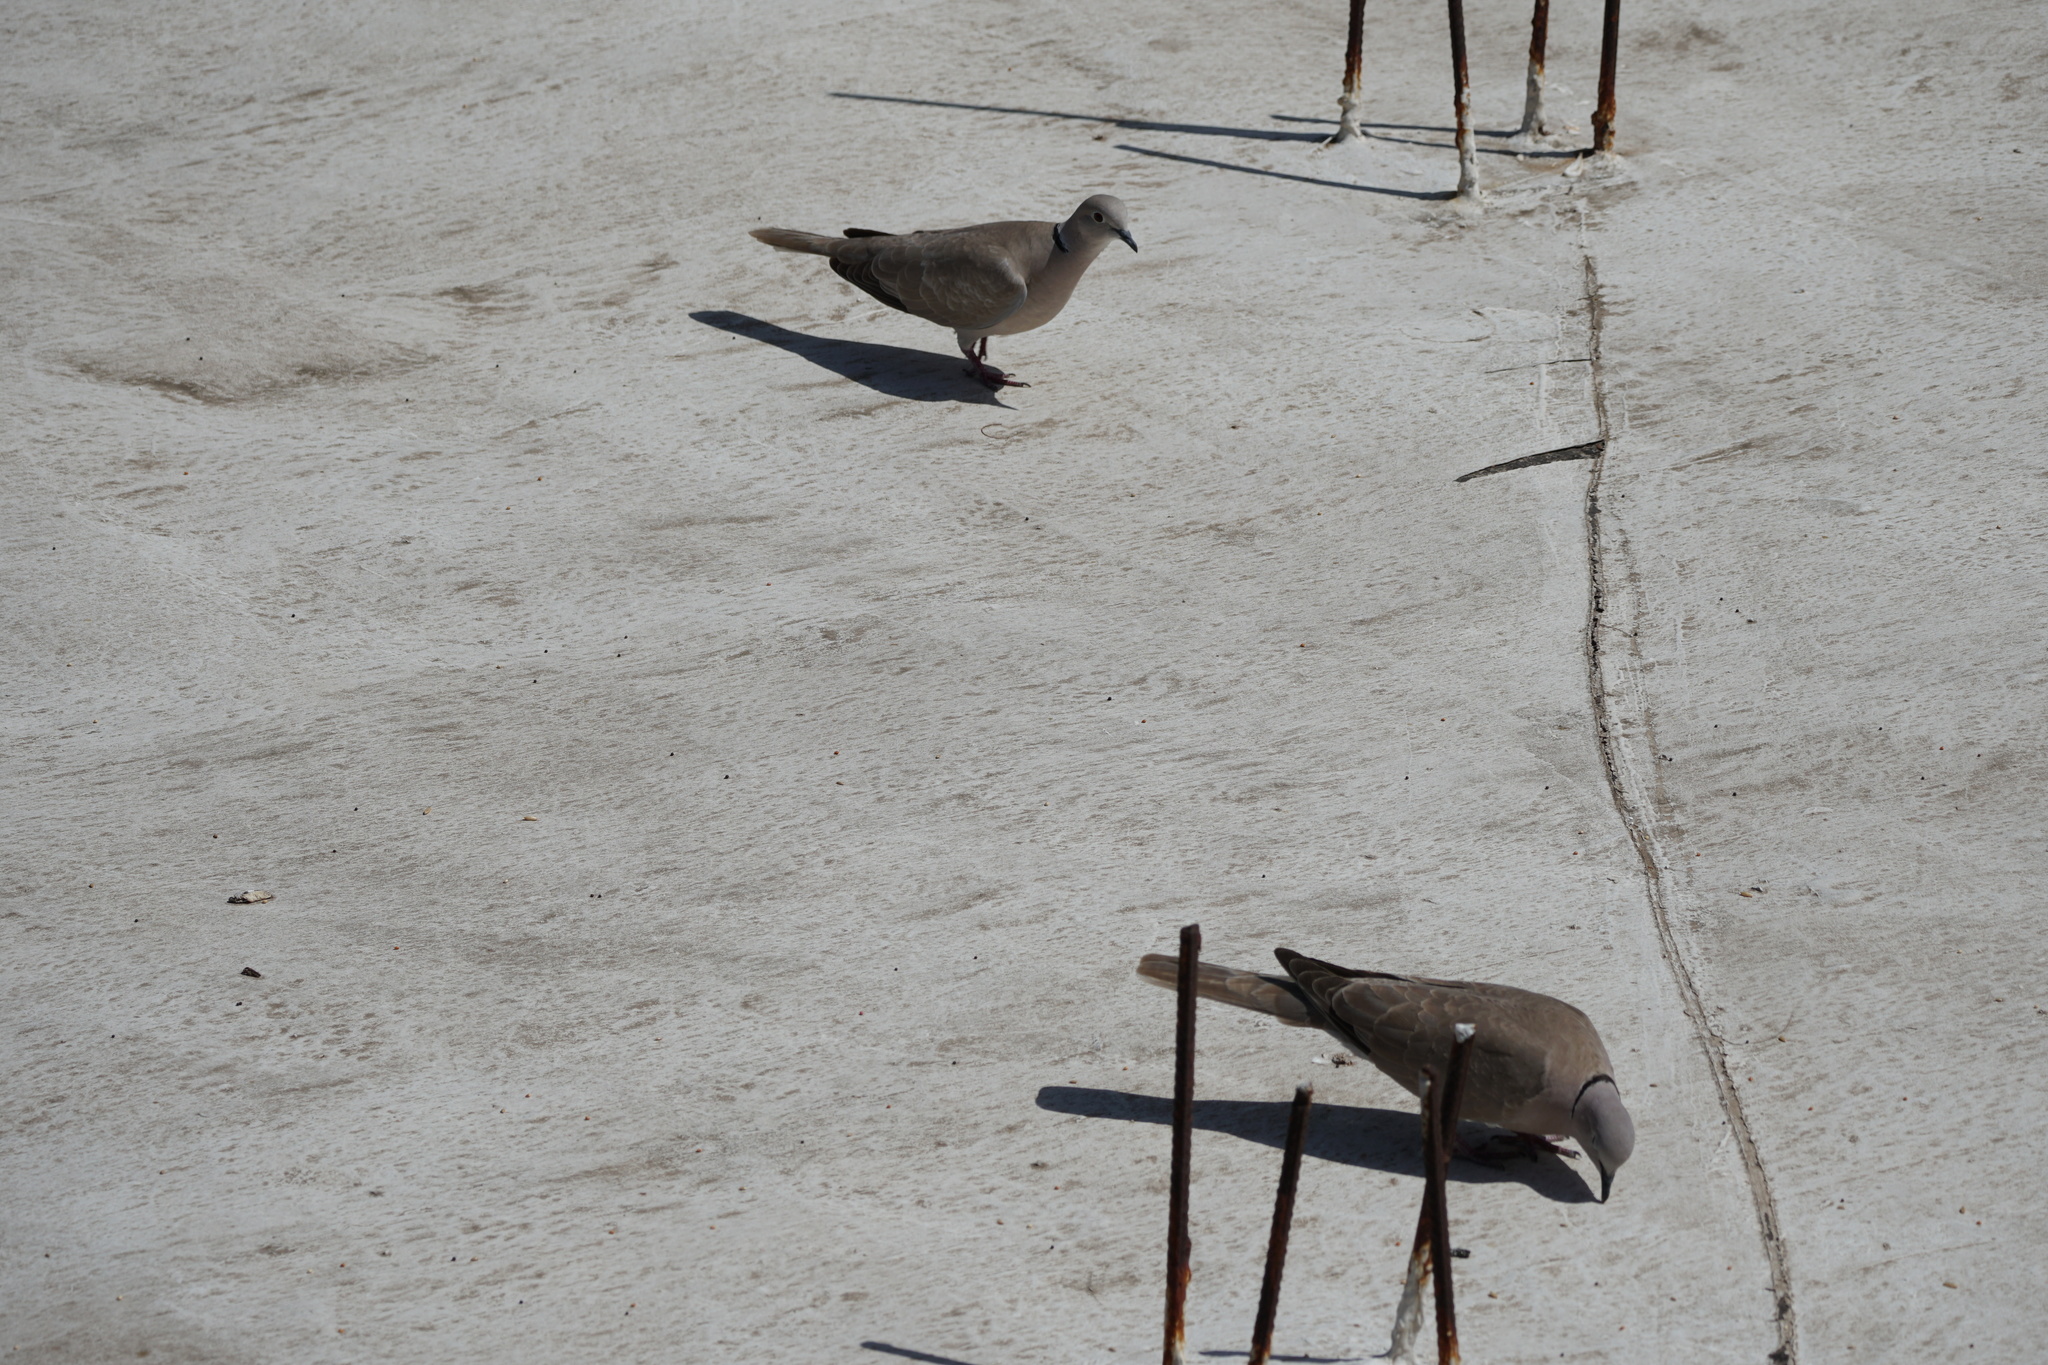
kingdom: Animalia
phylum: Chordata
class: Aves
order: Columbiformes
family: Columbidae
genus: Streptopelia
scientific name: Streptopelia decaocto
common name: Eurasian collared dove
